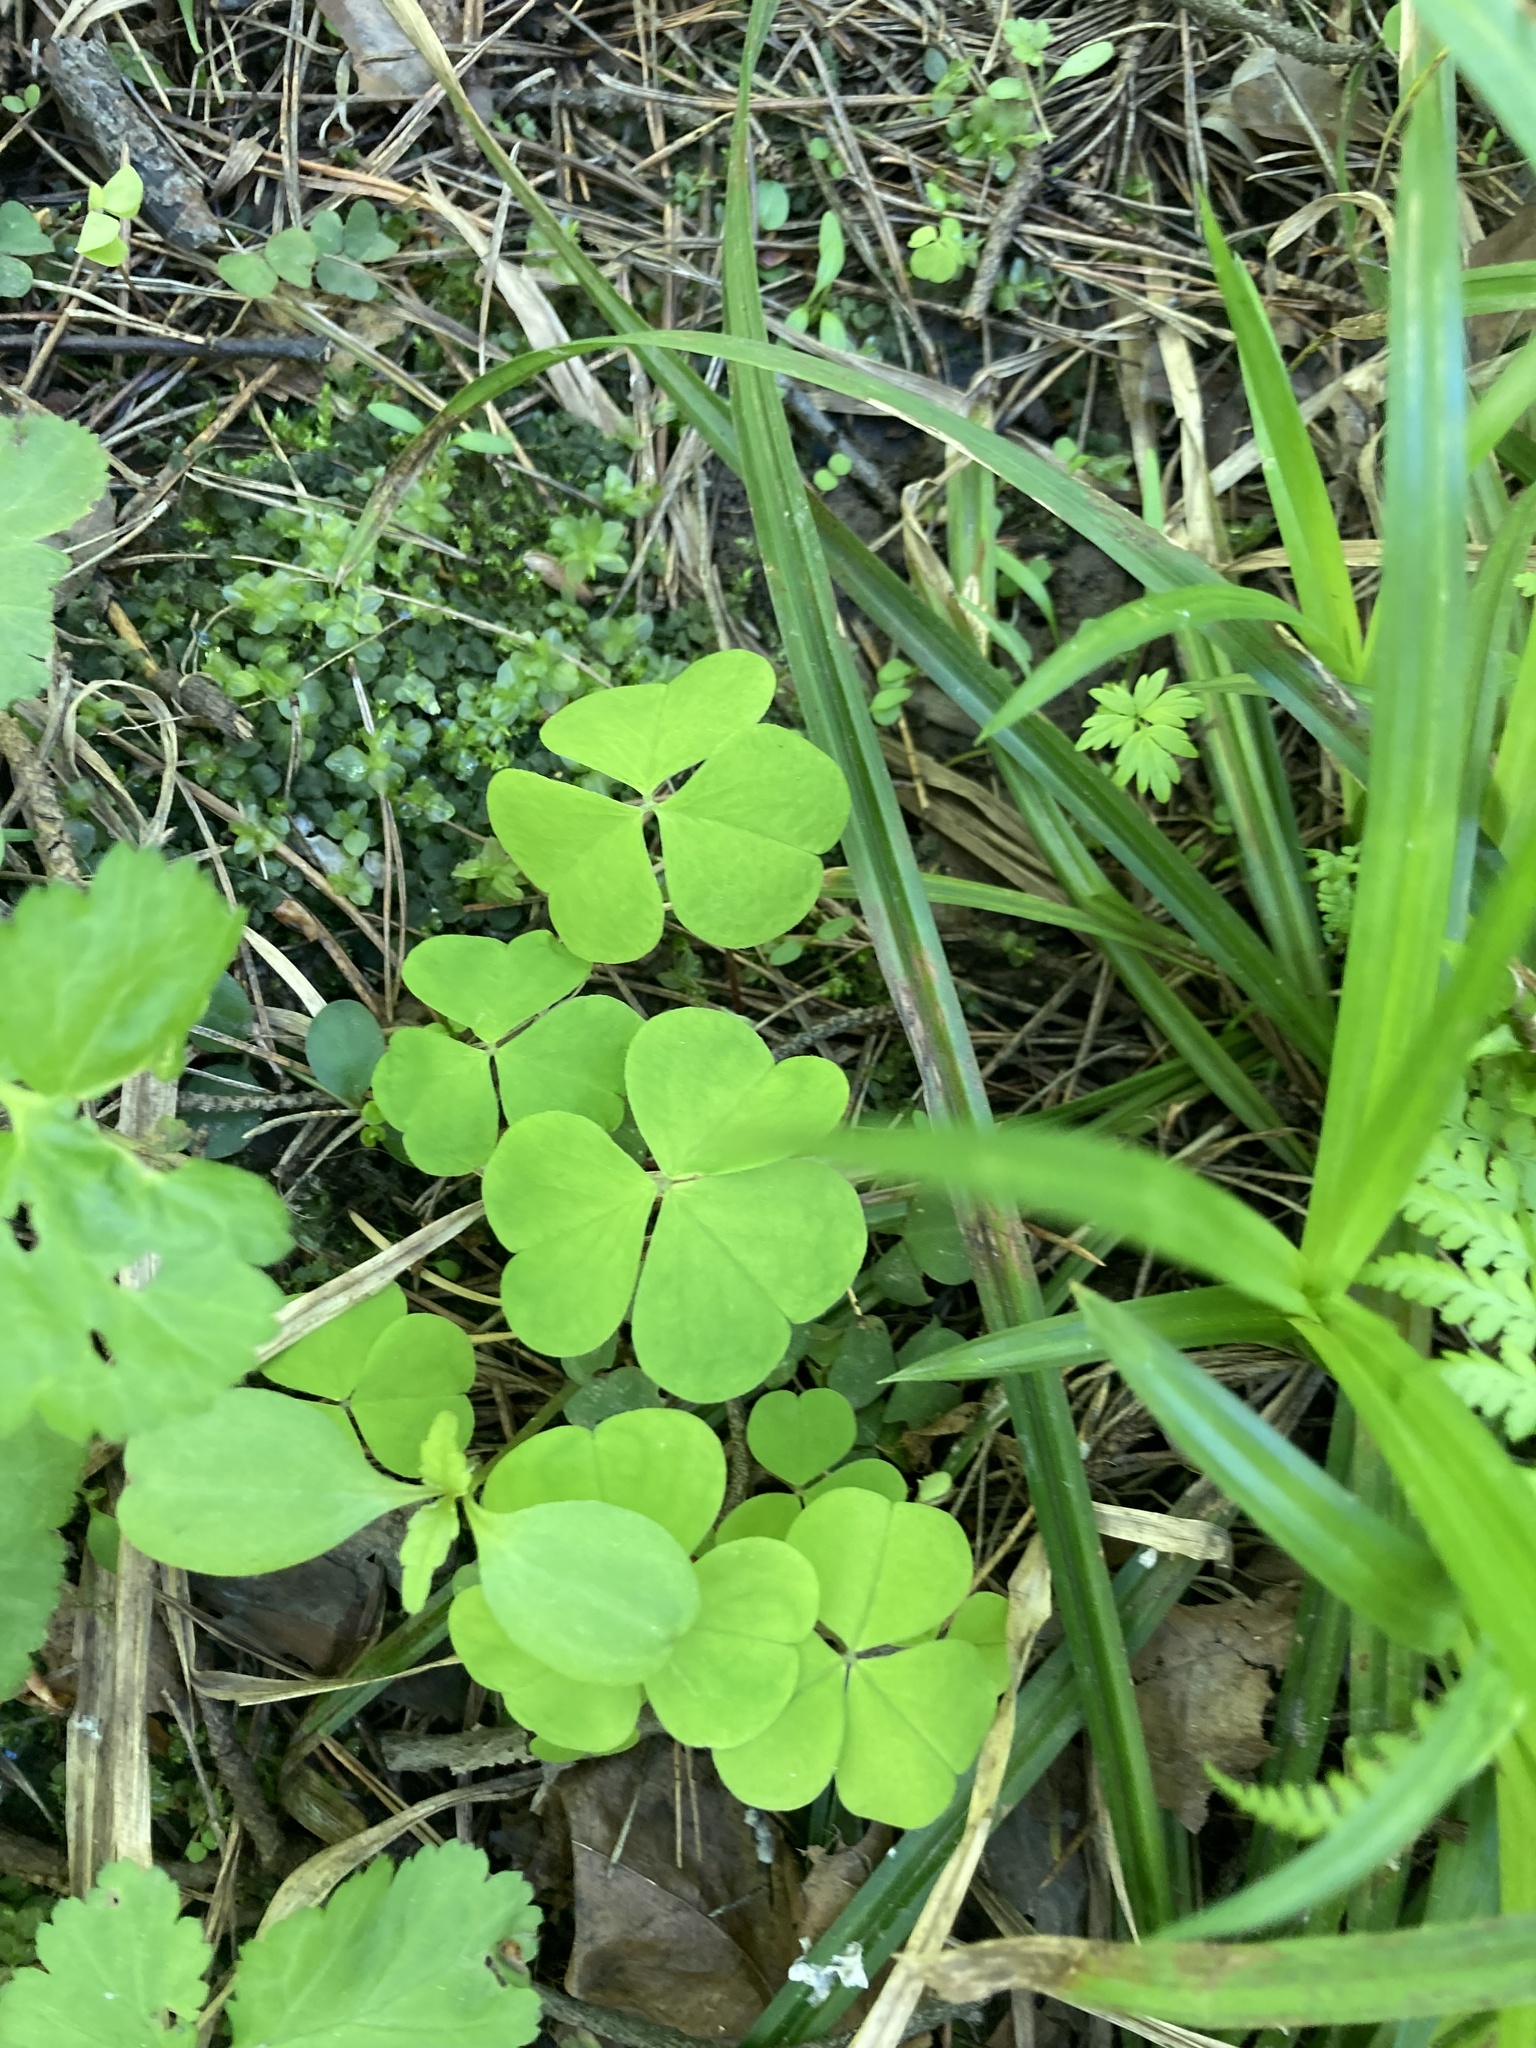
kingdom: Plantae
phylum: Tracheophyta
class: Magnoliopsida
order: Oxalidales
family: Oxalidaceae
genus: Oxalis
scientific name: Oxalis acetosella
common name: Wood-sorrel
